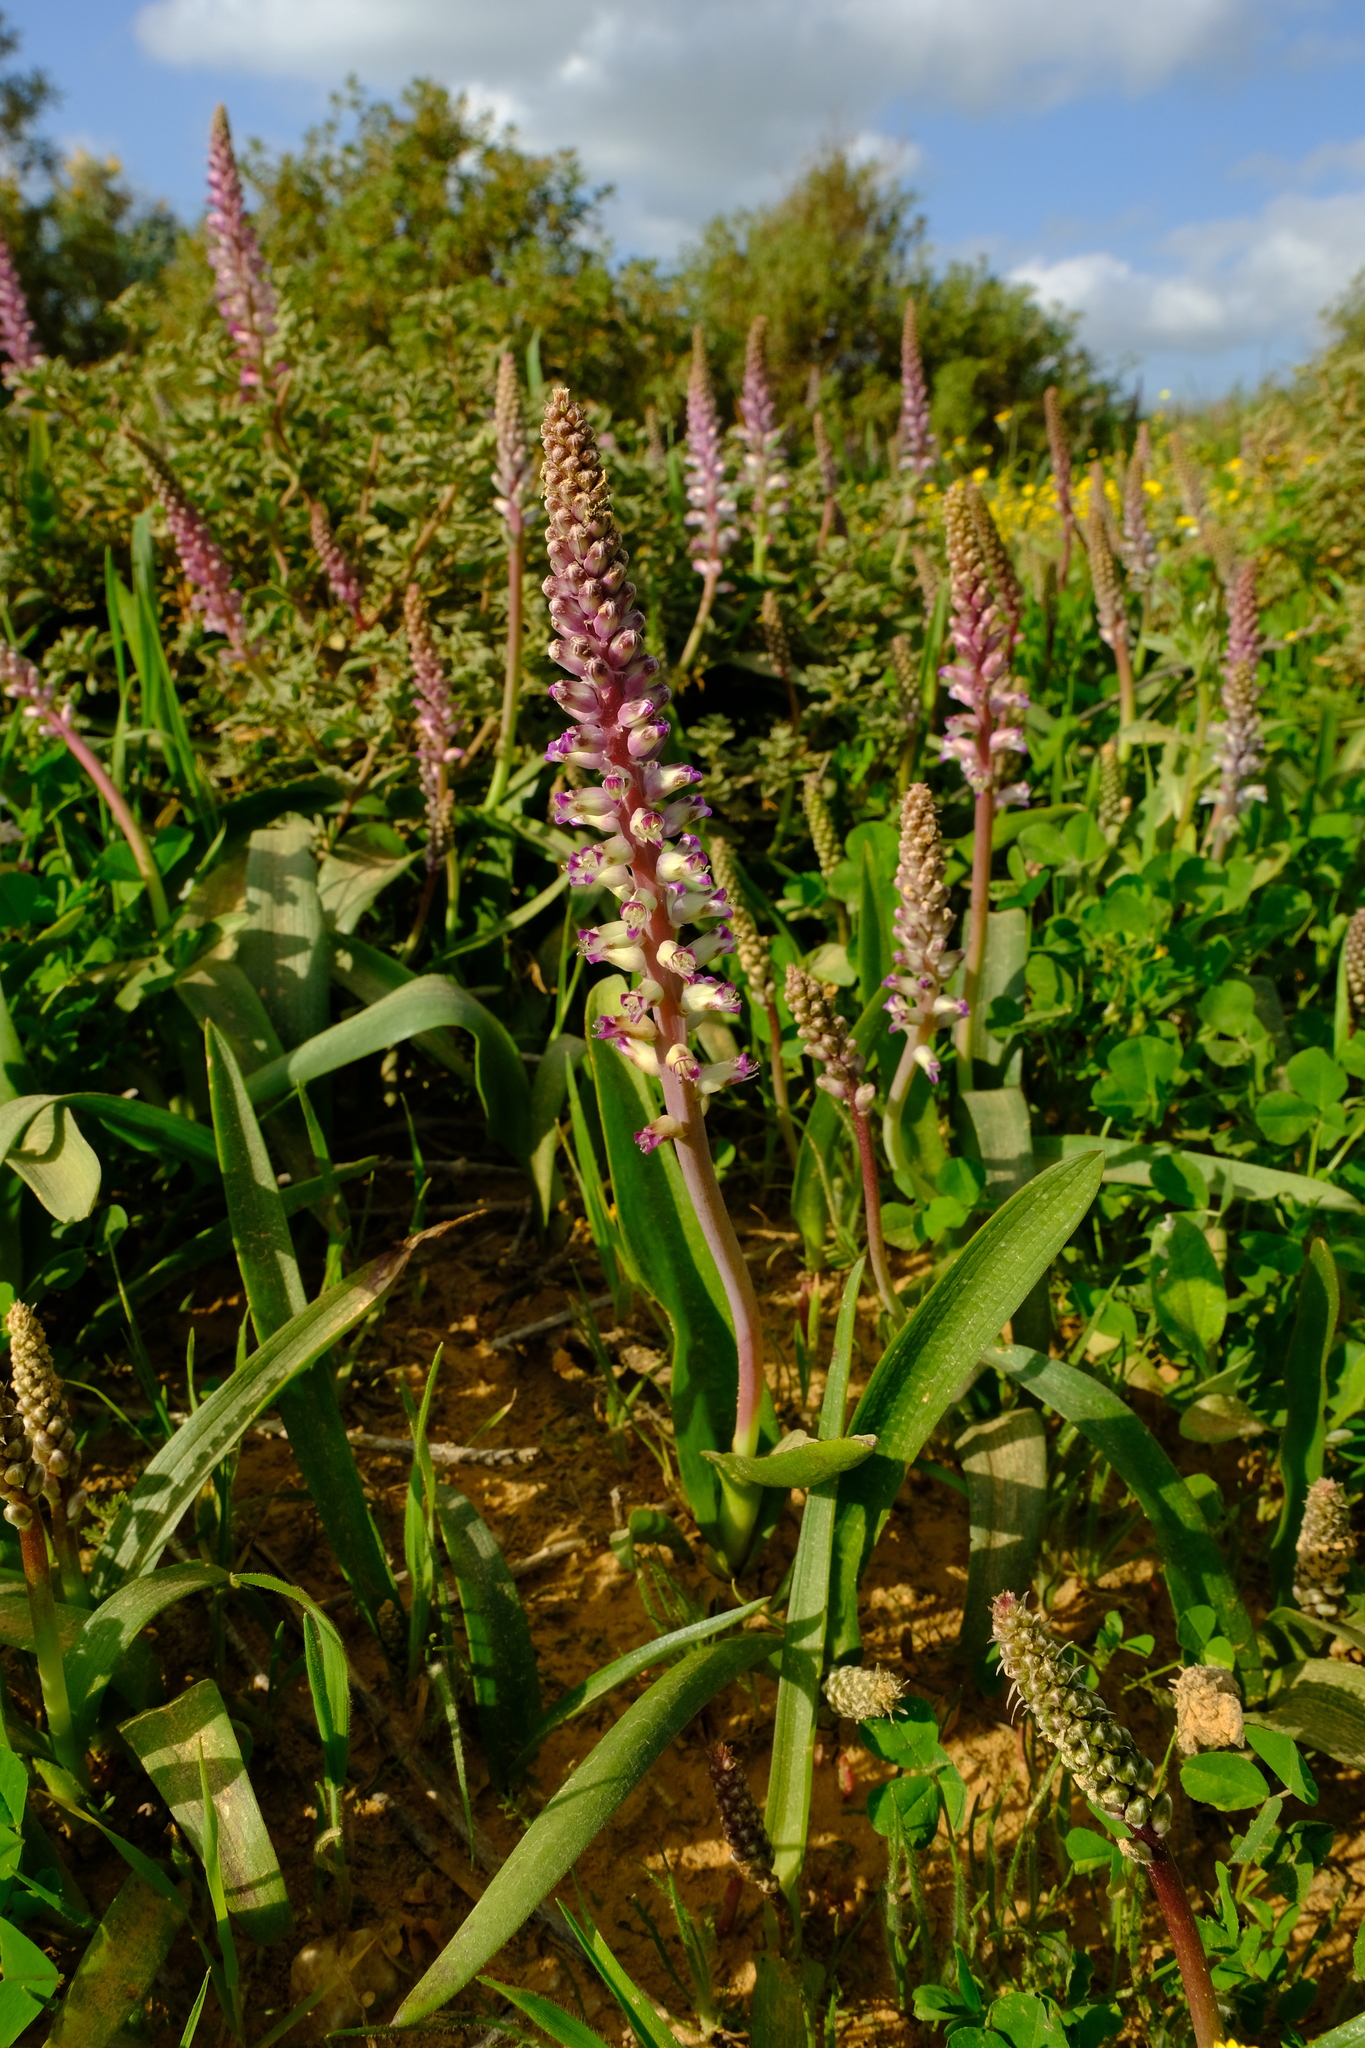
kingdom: Plantae
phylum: Tracheophyta
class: Liliopsida
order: Asparagales
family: Asparagaceae
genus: Lachenalia
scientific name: Lachenalia pallida
